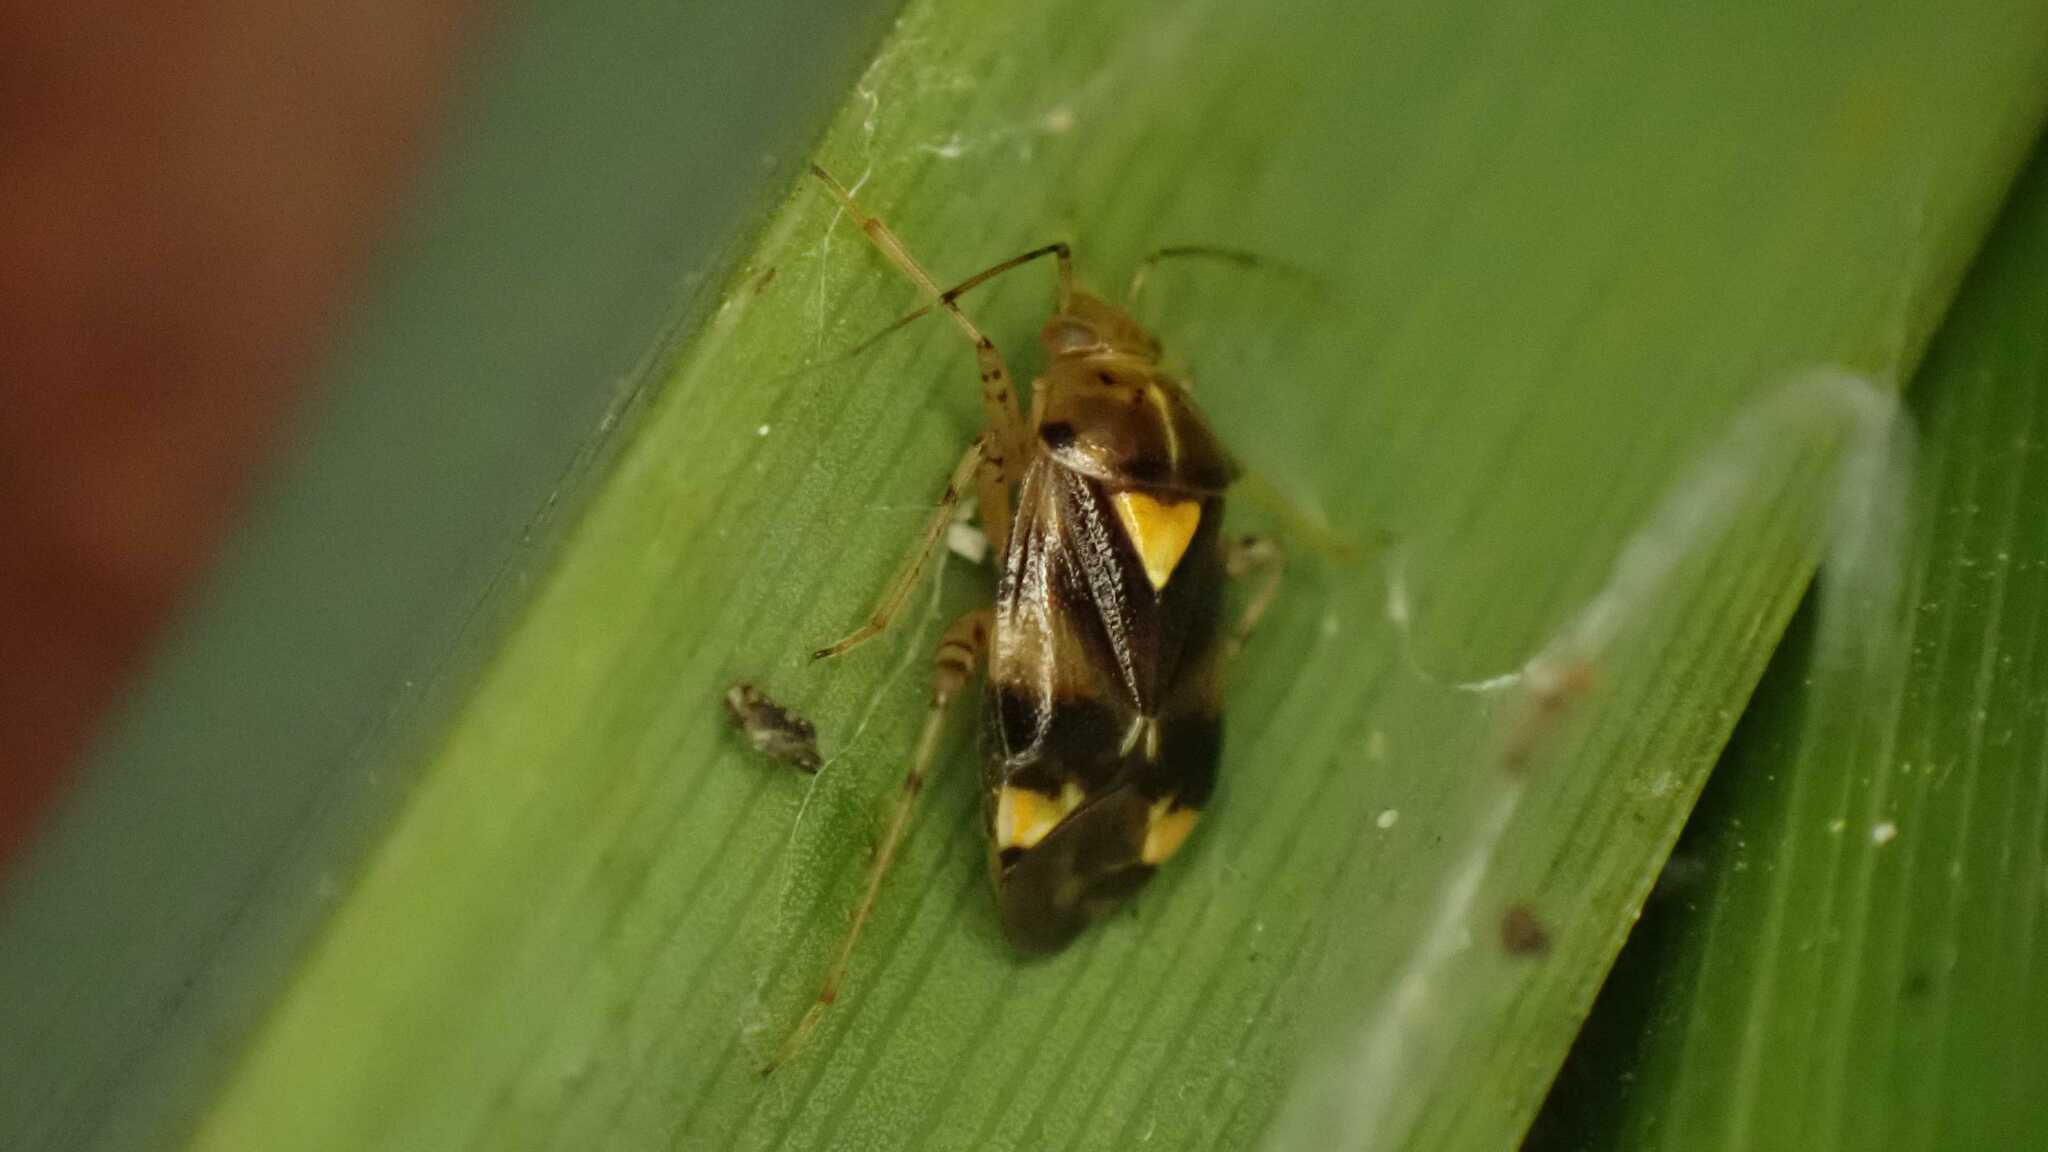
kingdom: Animalia
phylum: Arthropoda
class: Insecta
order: Hemiptera
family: Miridae
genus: Liocoris
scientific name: Liocoris tripustulatus
